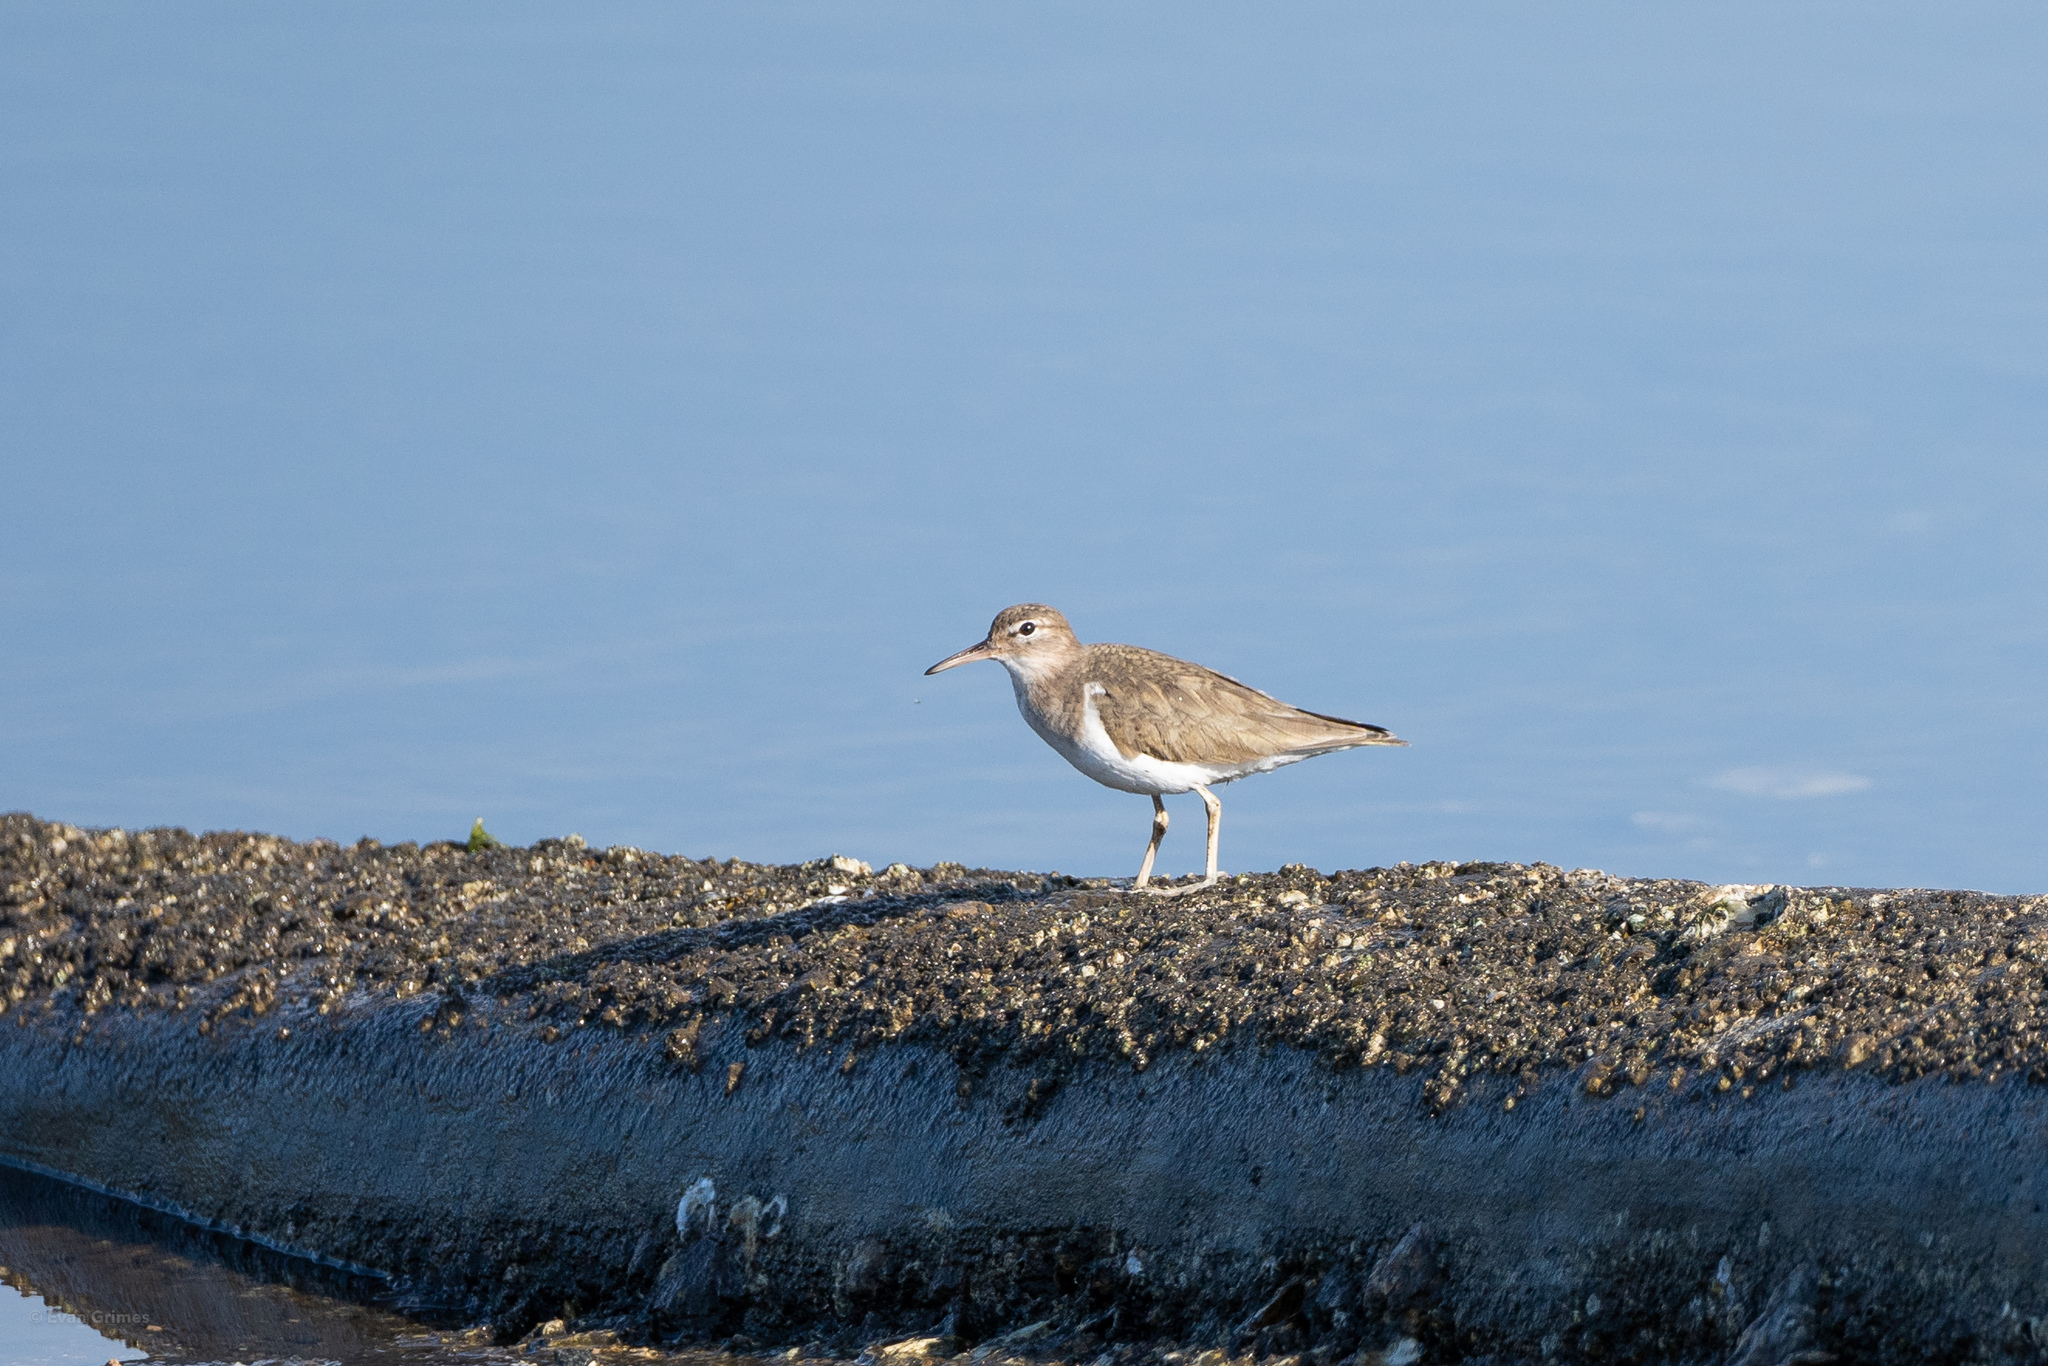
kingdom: Animalia
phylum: Chordata
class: Aves
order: Charadriiformes
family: Scolopacidae
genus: Actitis
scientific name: Actitis macularius
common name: Spotted sandpiper
